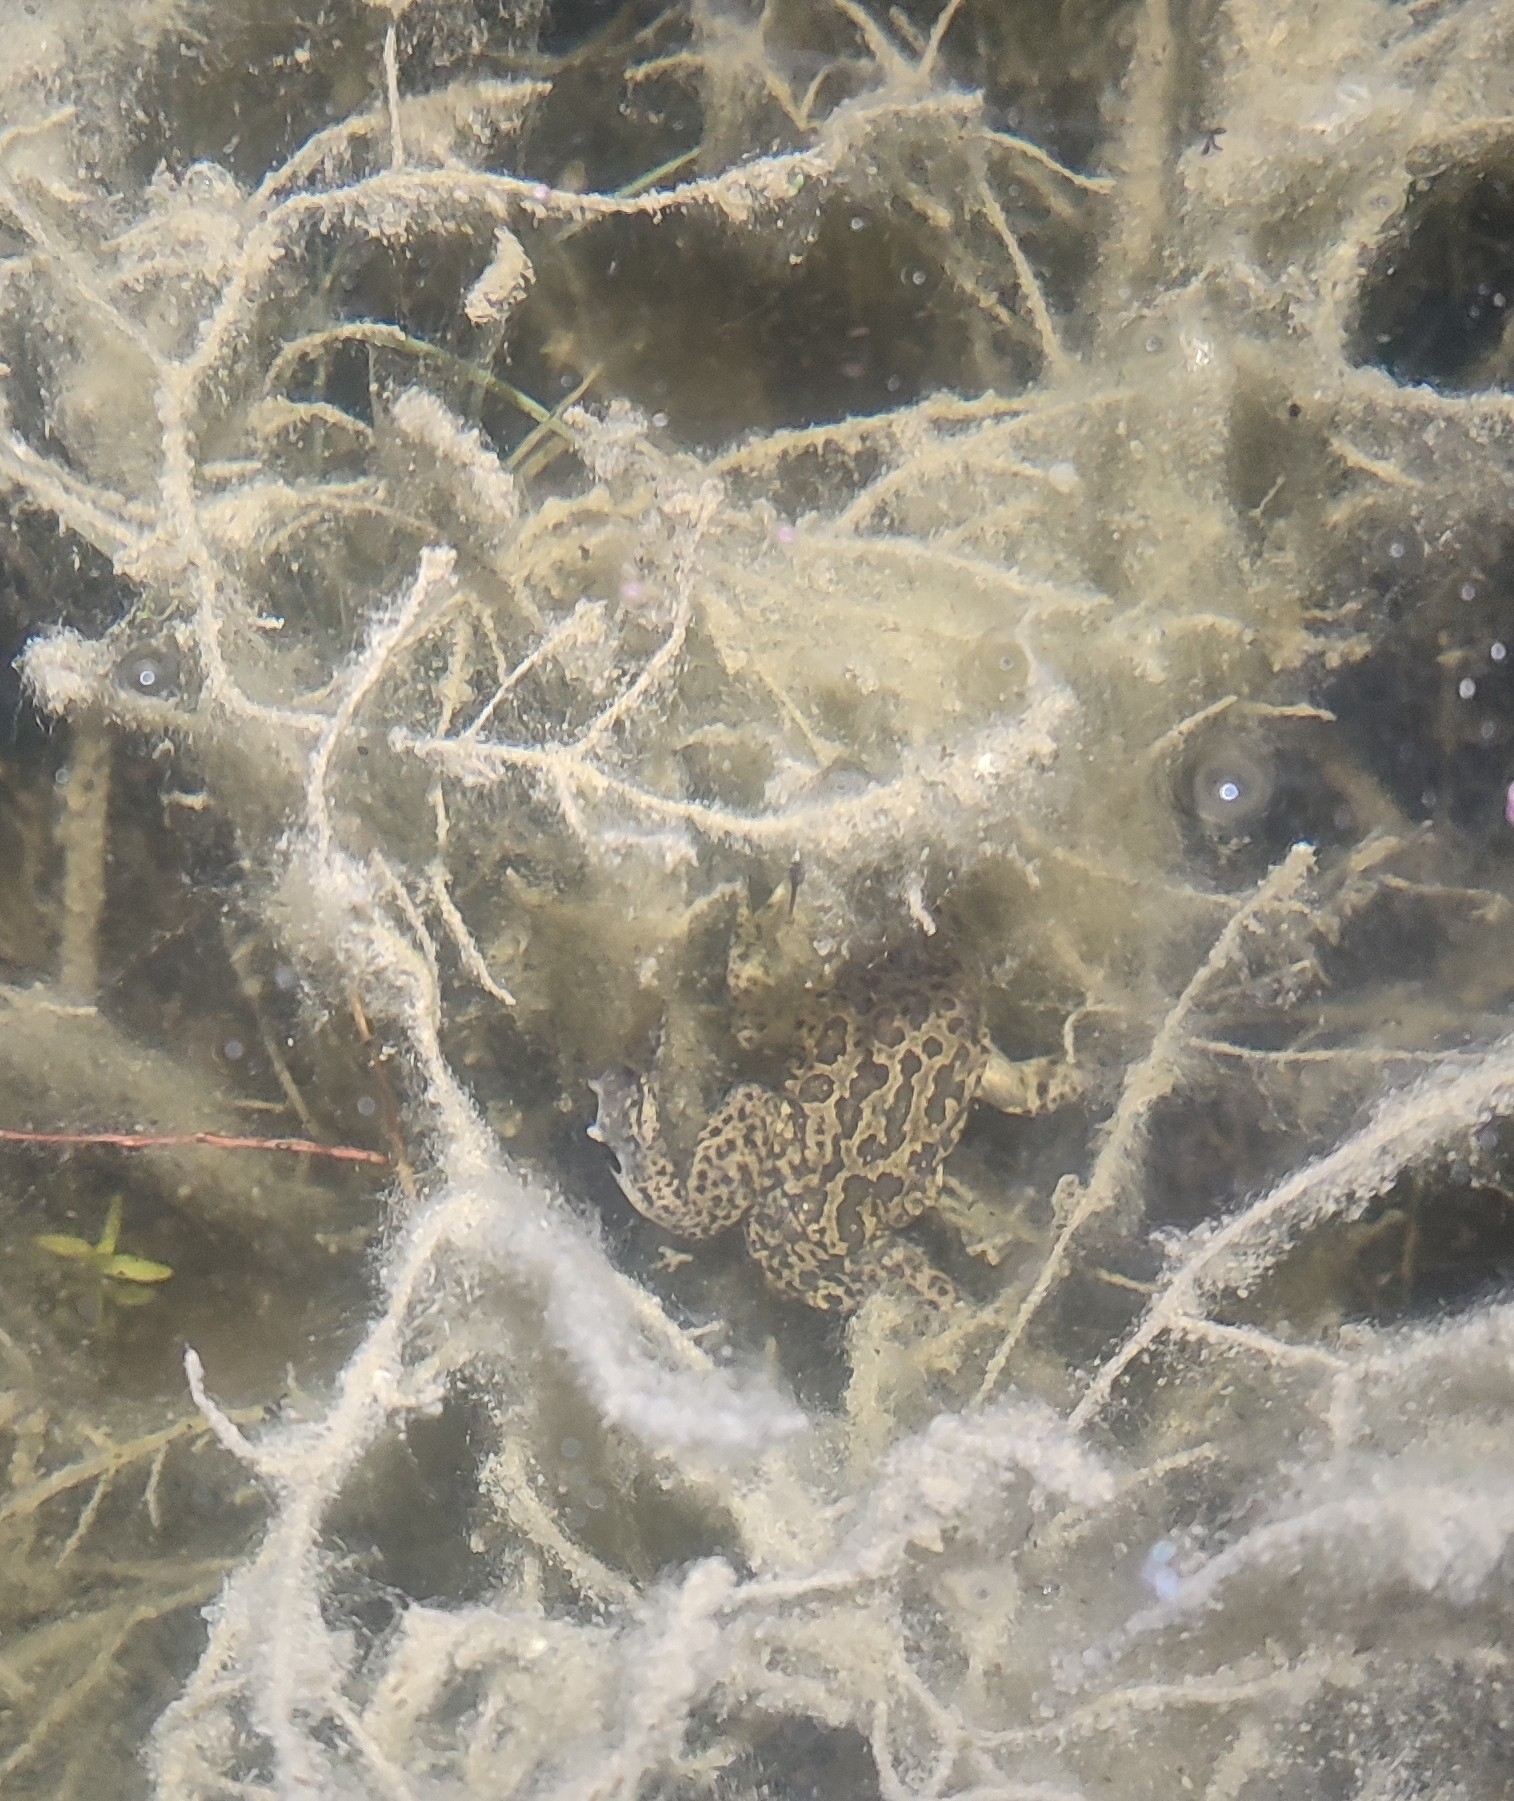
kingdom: Animalia
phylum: Chordata
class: Amphibia
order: Anura
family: Pelobatidae
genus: Pelobates
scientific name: Pelobates cultripes
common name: Western spadefoot
